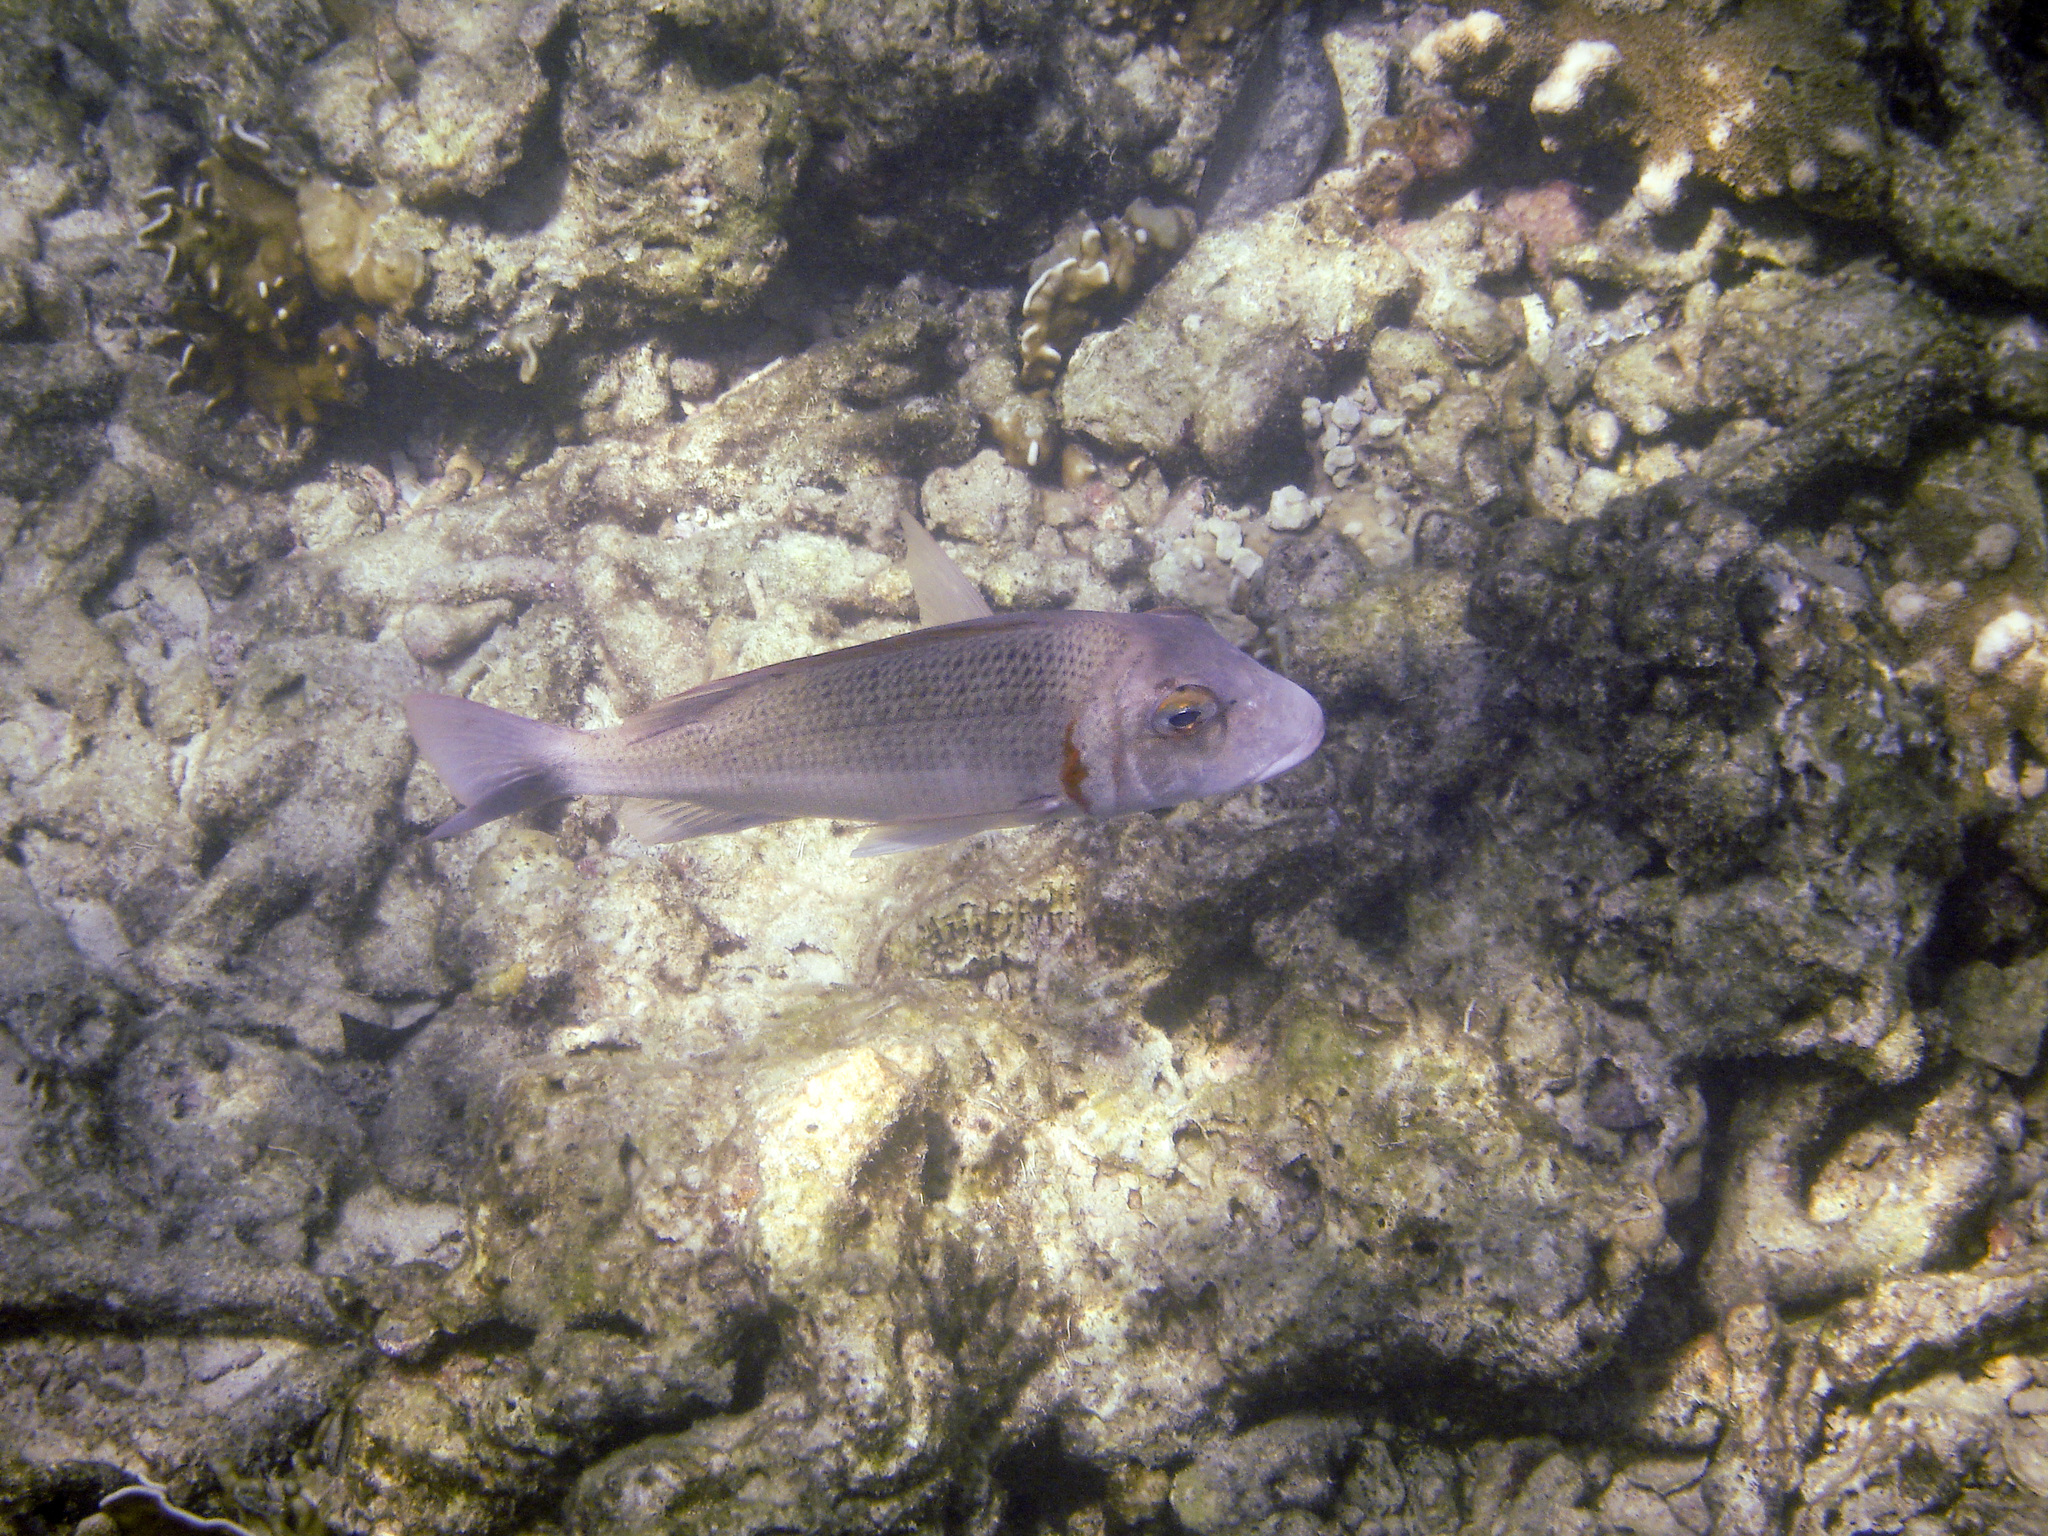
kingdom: Animalia
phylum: Chordata
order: Perciformes
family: Lethrinidae
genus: Lethrinus
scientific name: Lethrinus ornatus
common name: Ornate emperor
